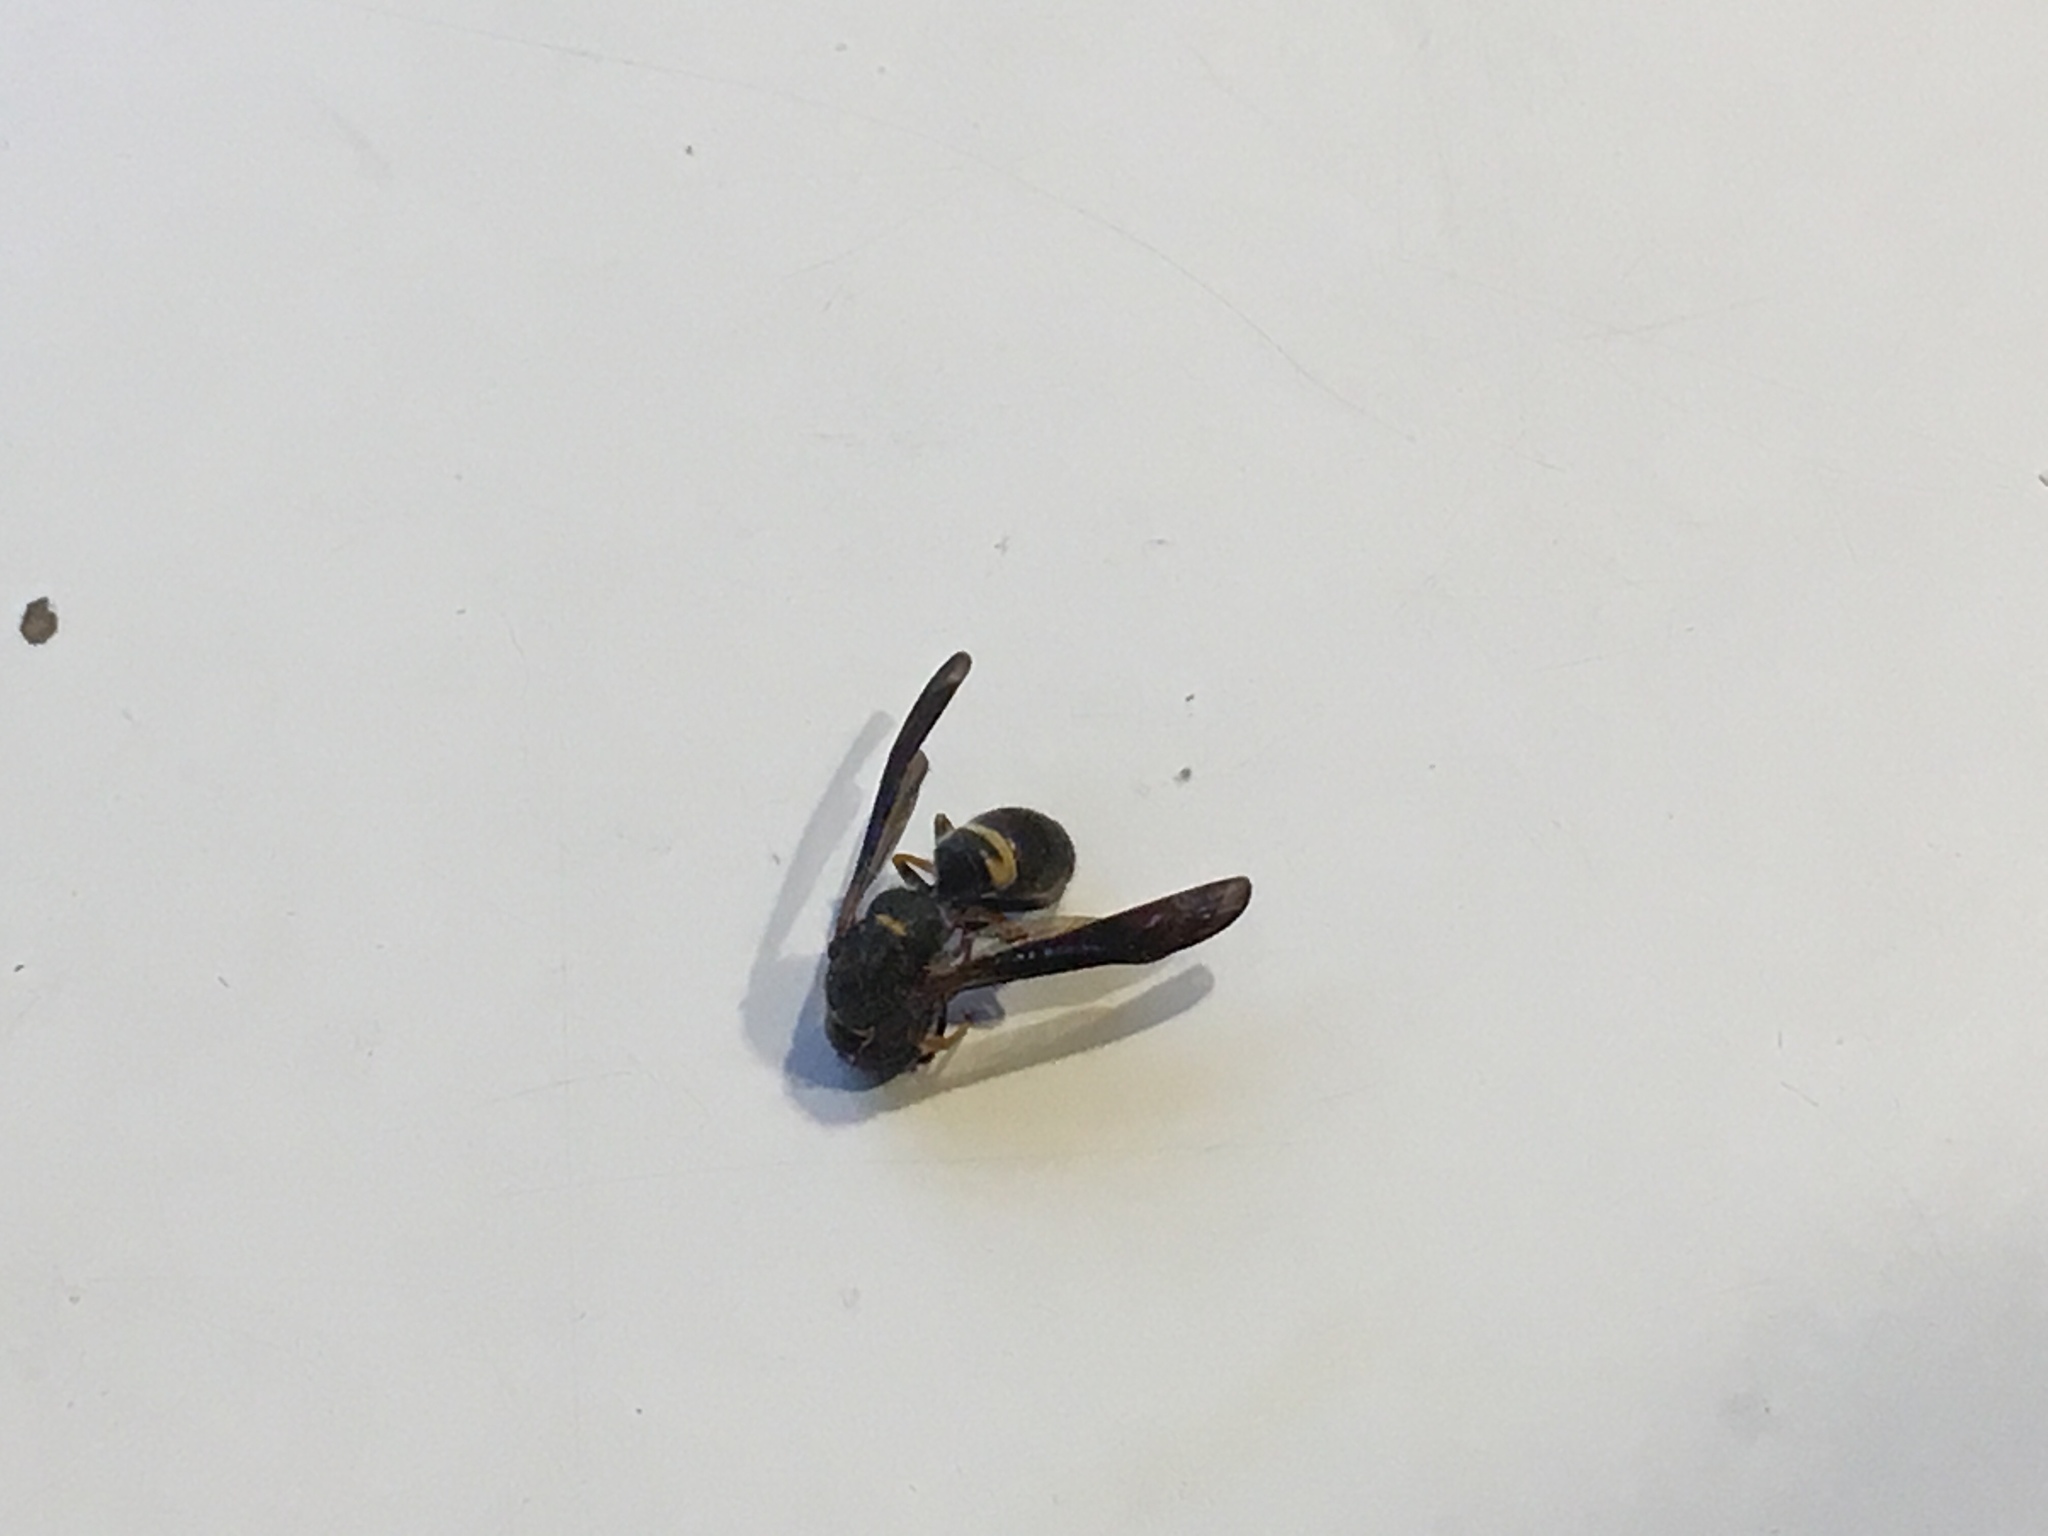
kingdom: Animalia
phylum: Arthropoda
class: Insecta
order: Hymenoptera
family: Vespidae
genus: Ancistrocerus
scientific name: Ancistrocerus unifasciatus
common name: One-banded mason wasp
